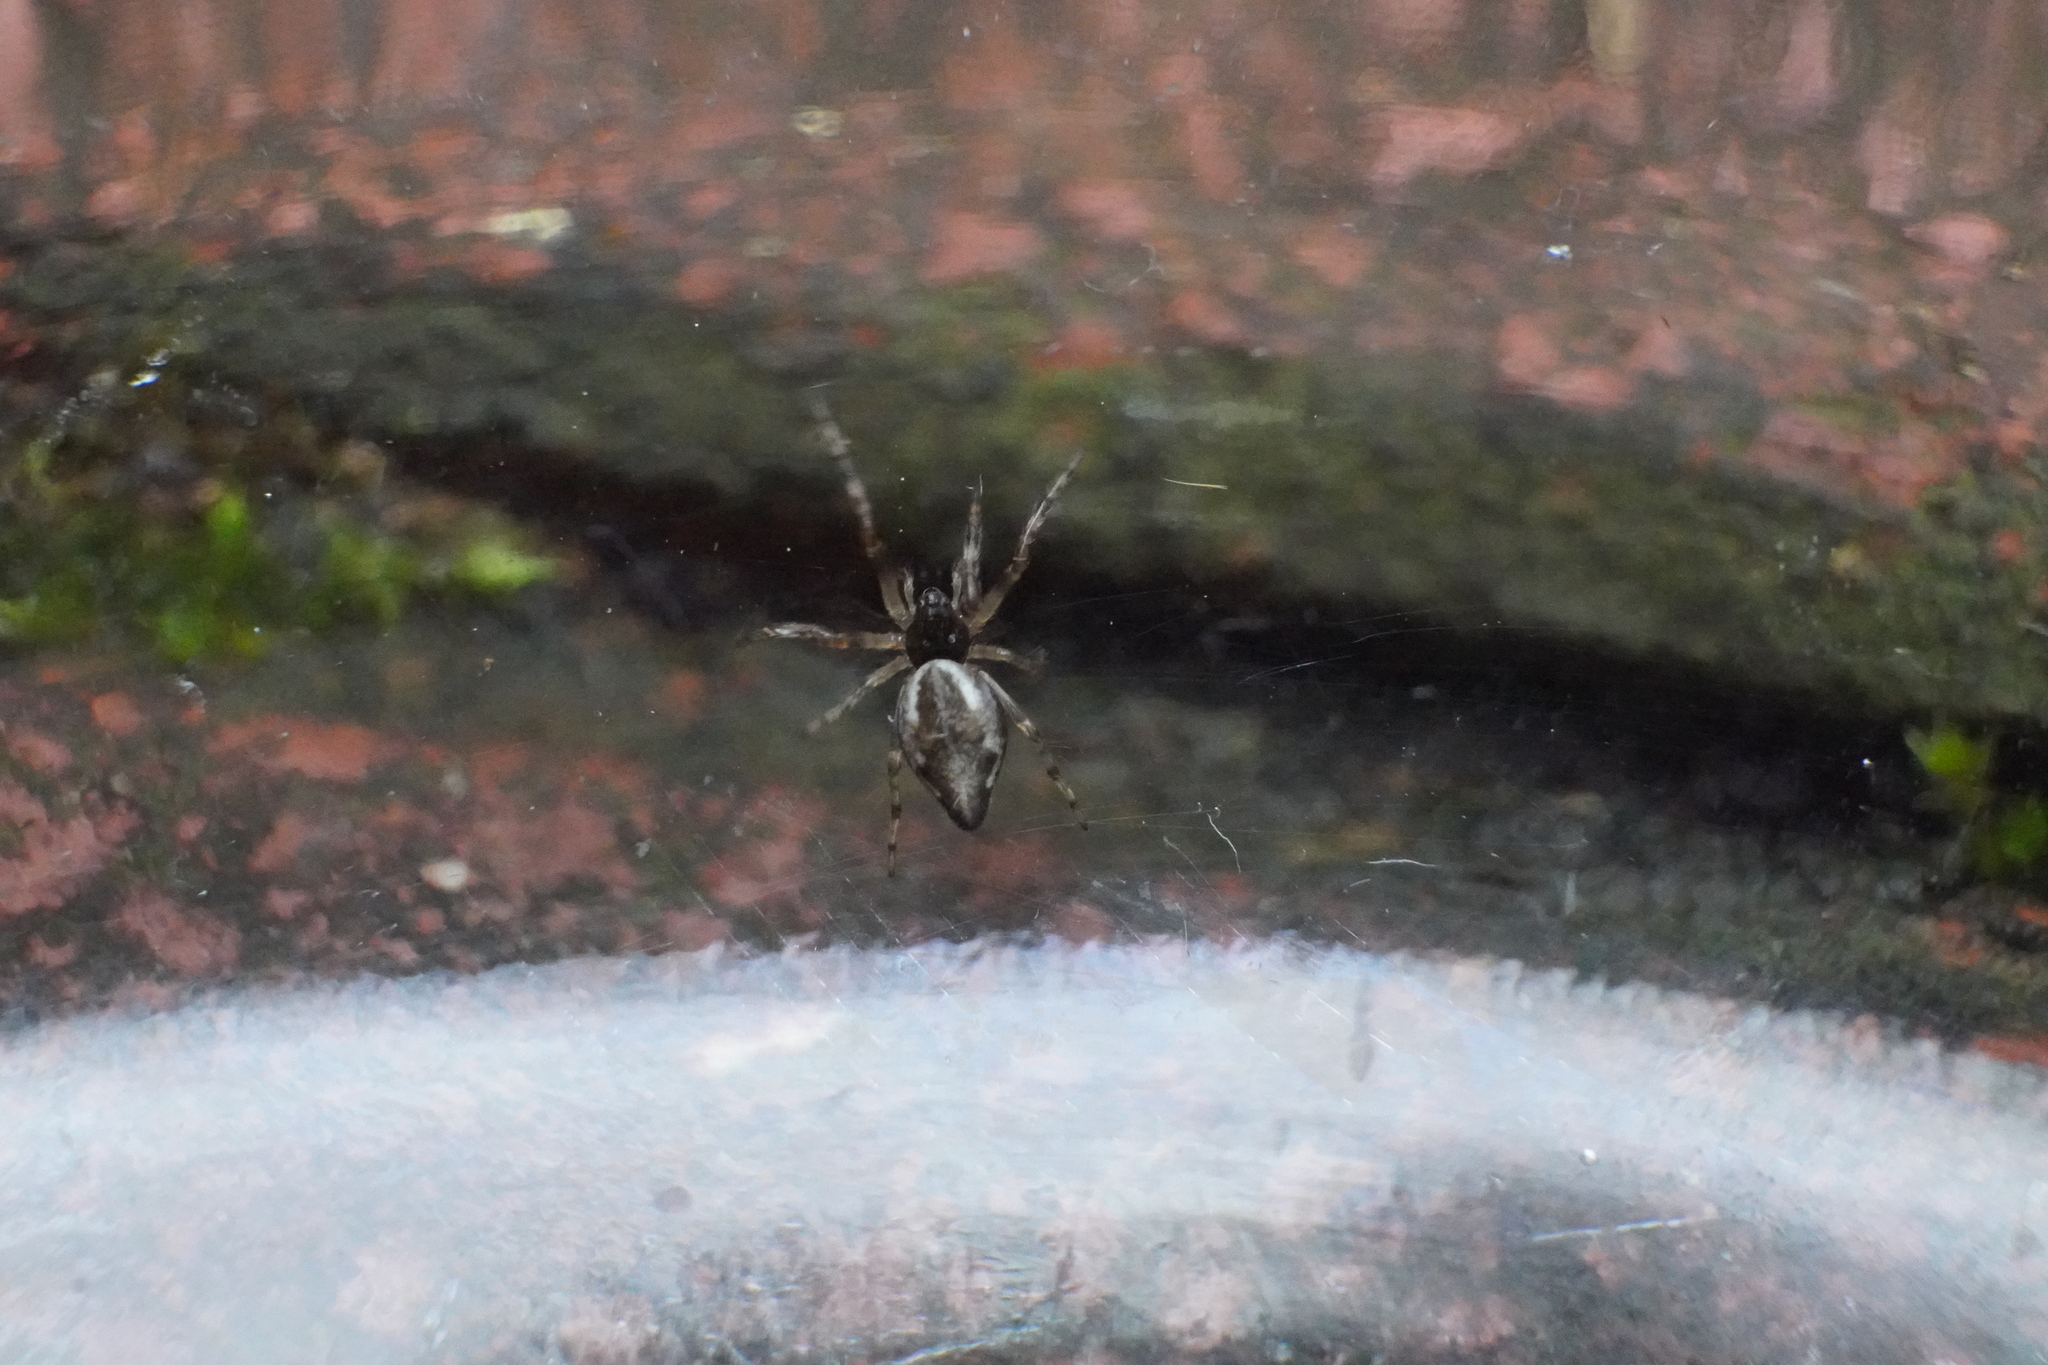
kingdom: Animalia
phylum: Arthropoda
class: Arachnida
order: Araneae
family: Araneidae
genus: Cyclosa
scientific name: Cyclosa conica
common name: Conical trashline orbweaver
